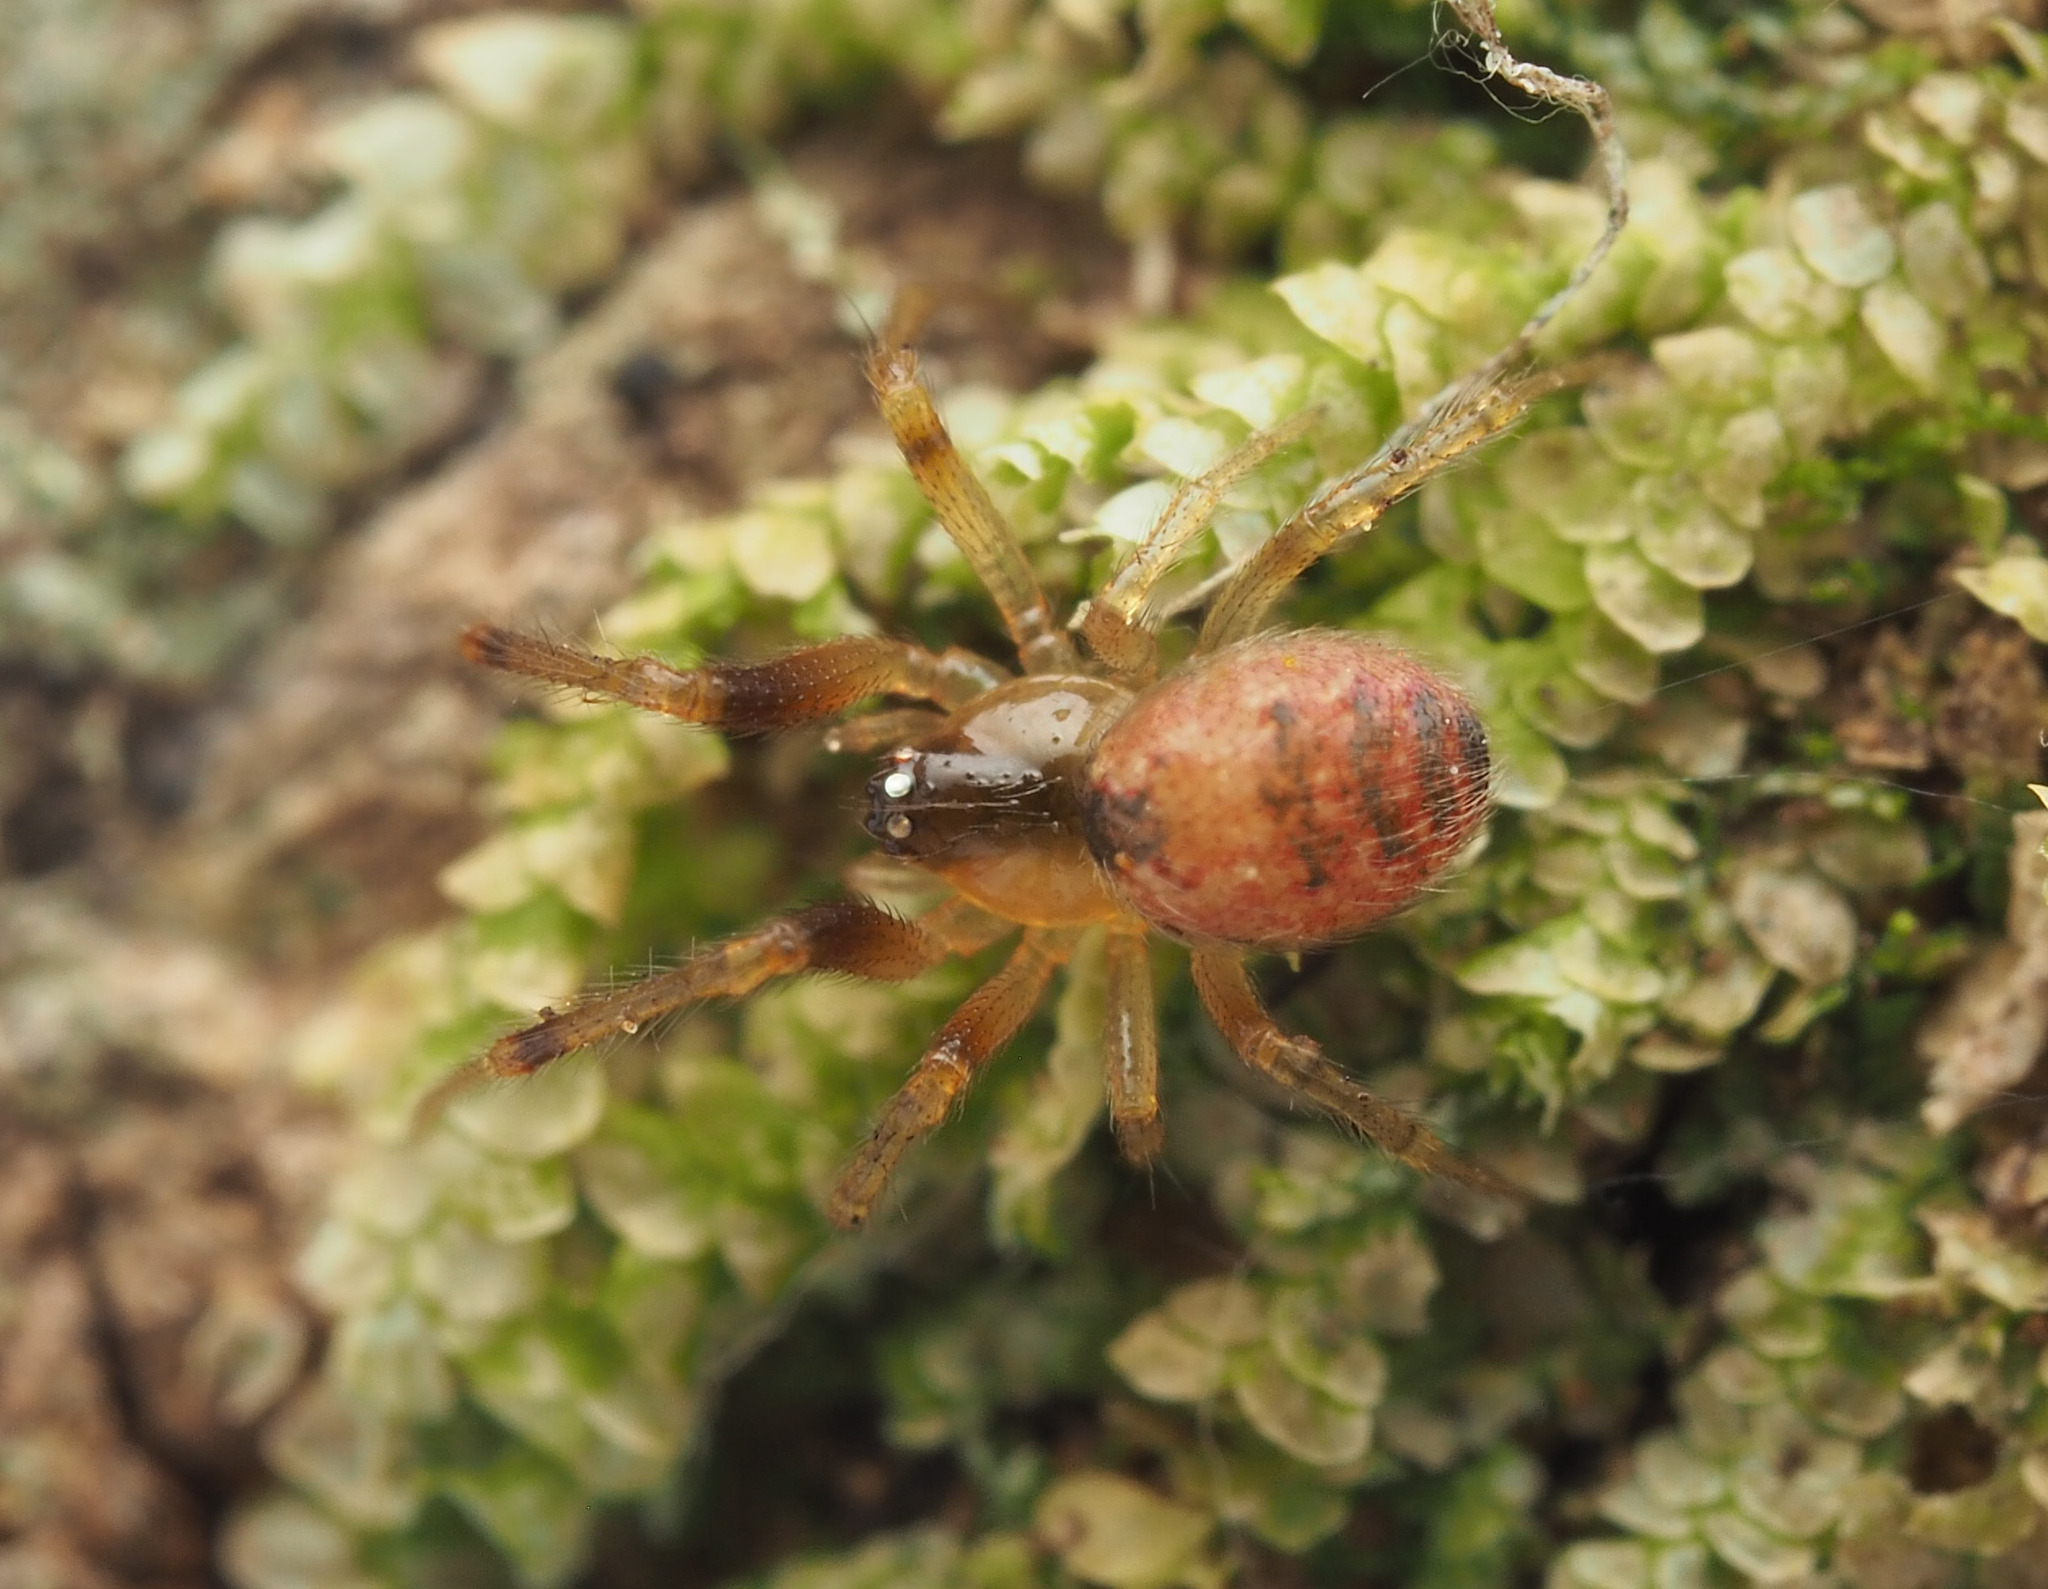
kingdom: Animalia
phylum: Arthropoda
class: Arachnida
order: Araneae
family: Theridiidae
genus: Anelosimus
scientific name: Anelosimus
